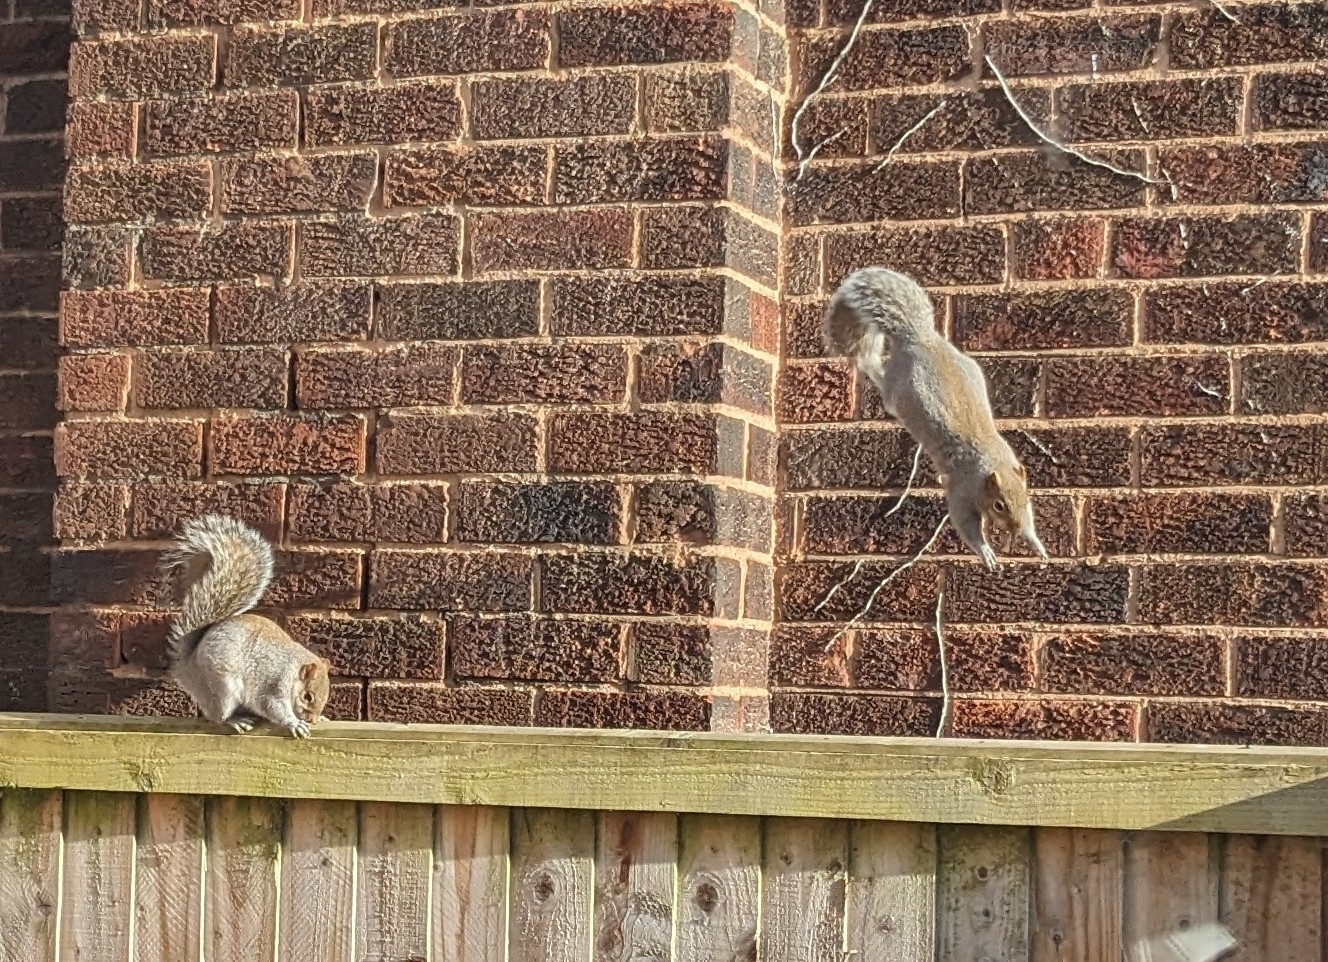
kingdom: Animalia
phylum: Chordata
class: Mammalia
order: Rodentia
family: Sciuridae
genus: Sciurus
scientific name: Sciurus carolinensis
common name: Eastern gray squirrel
